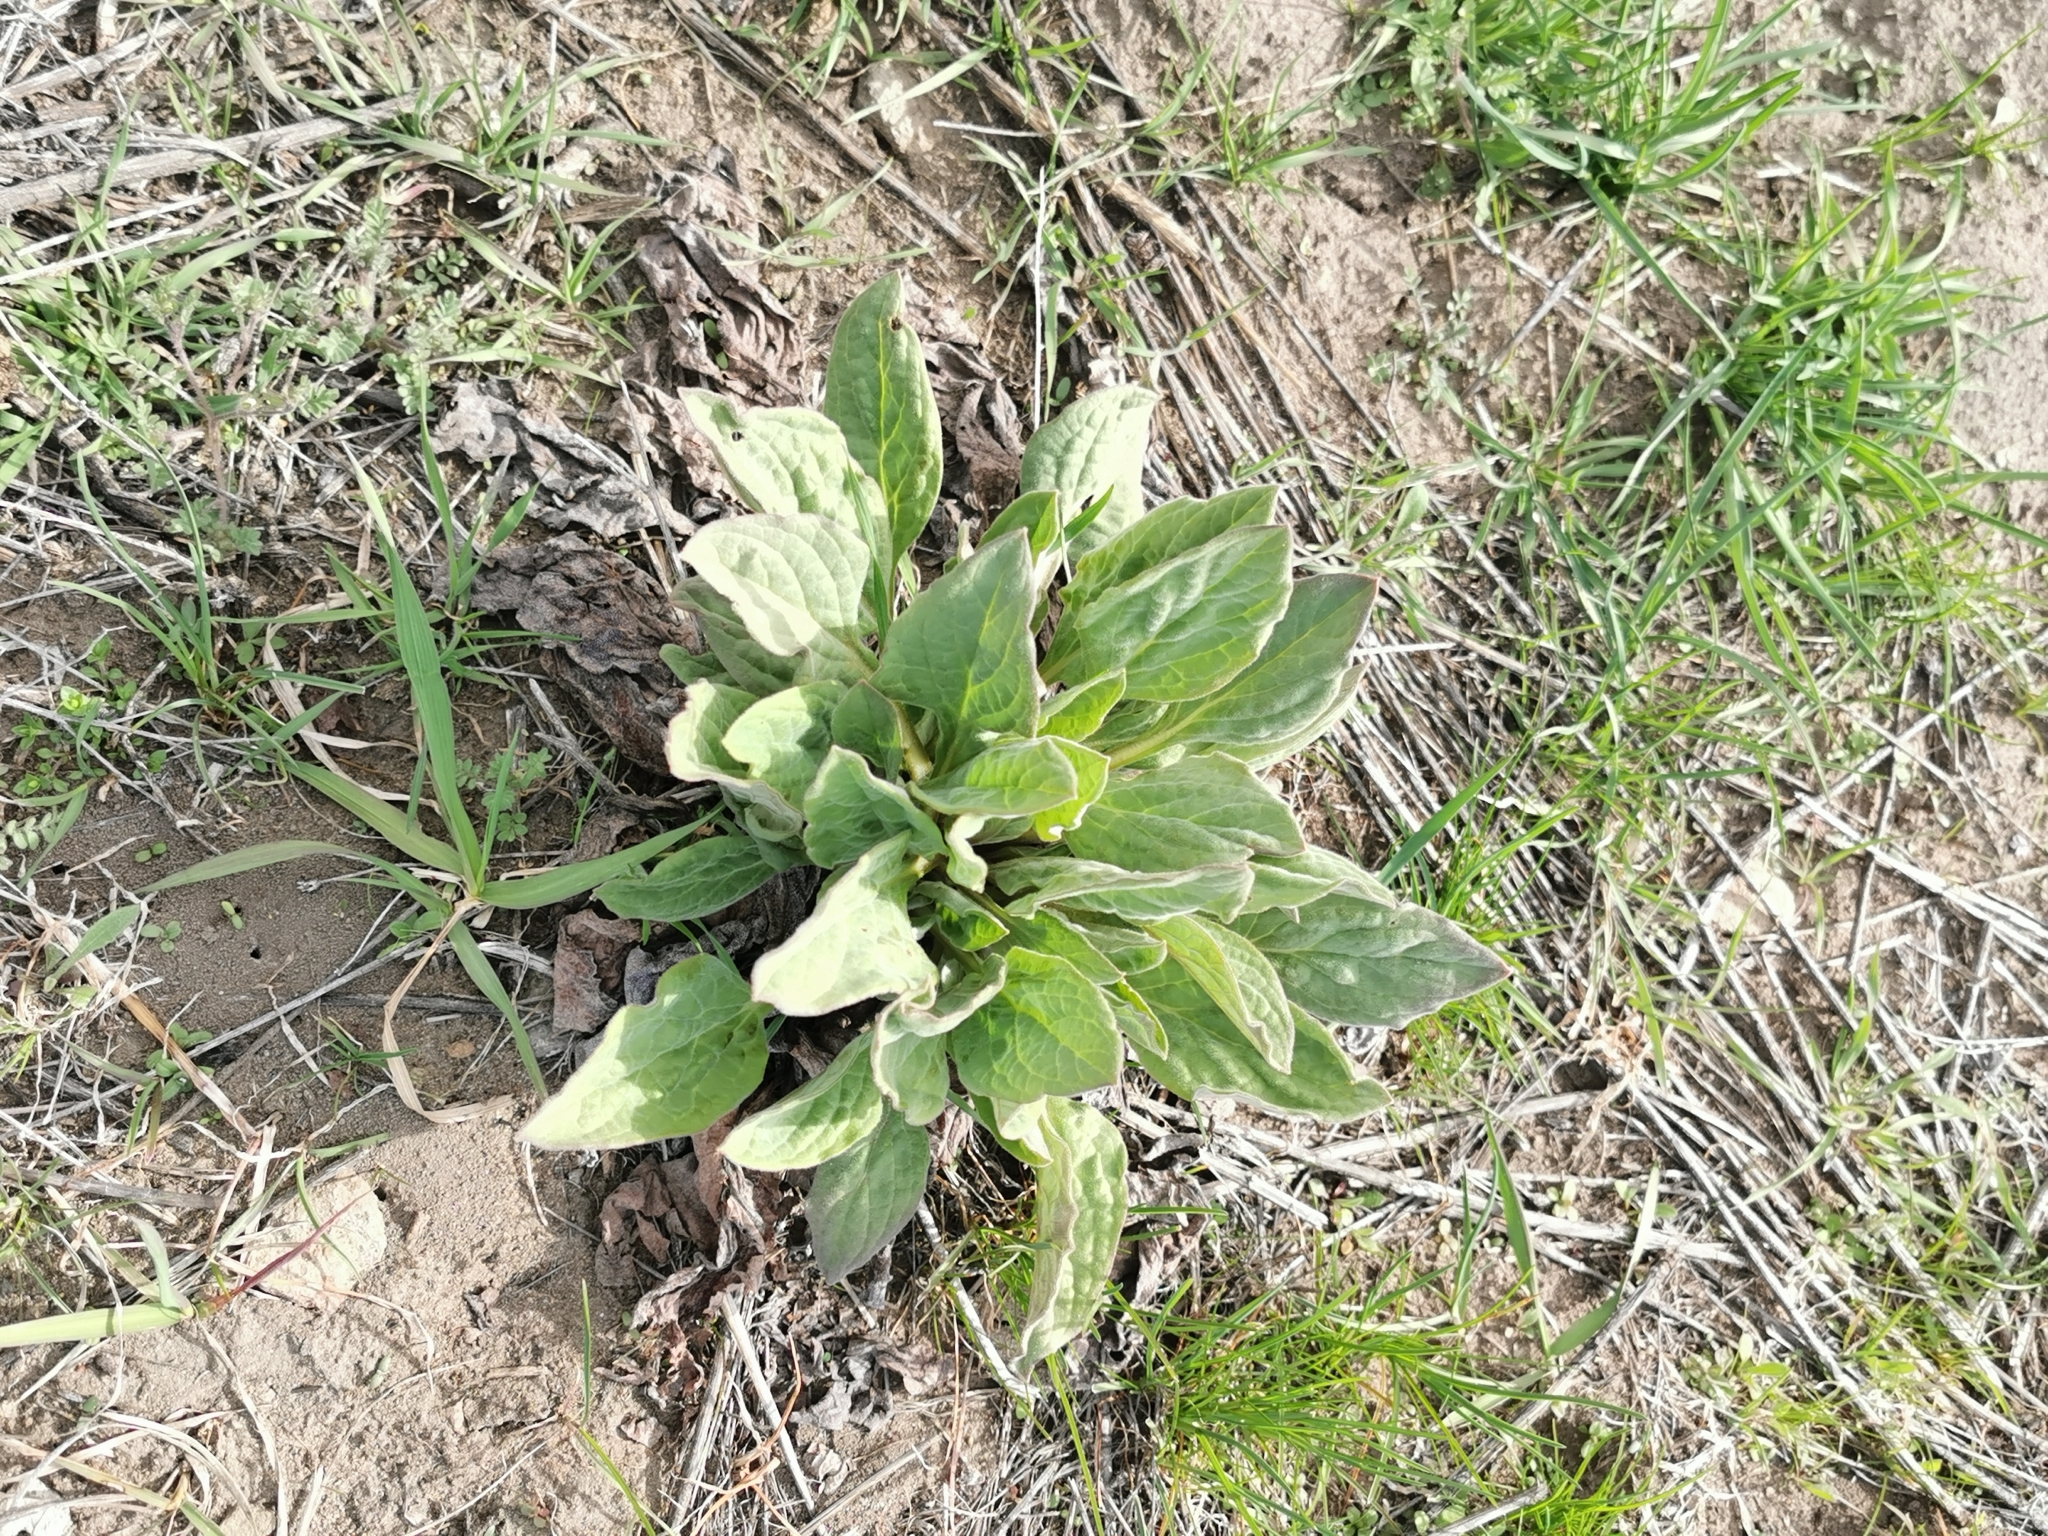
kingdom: Plantae
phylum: Tracheophyta
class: Magnoliopsida
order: Boraginales
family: Boraginaceae
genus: Cynoglossum
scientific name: Cynoglossum officinale
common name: Hound's-tongue
